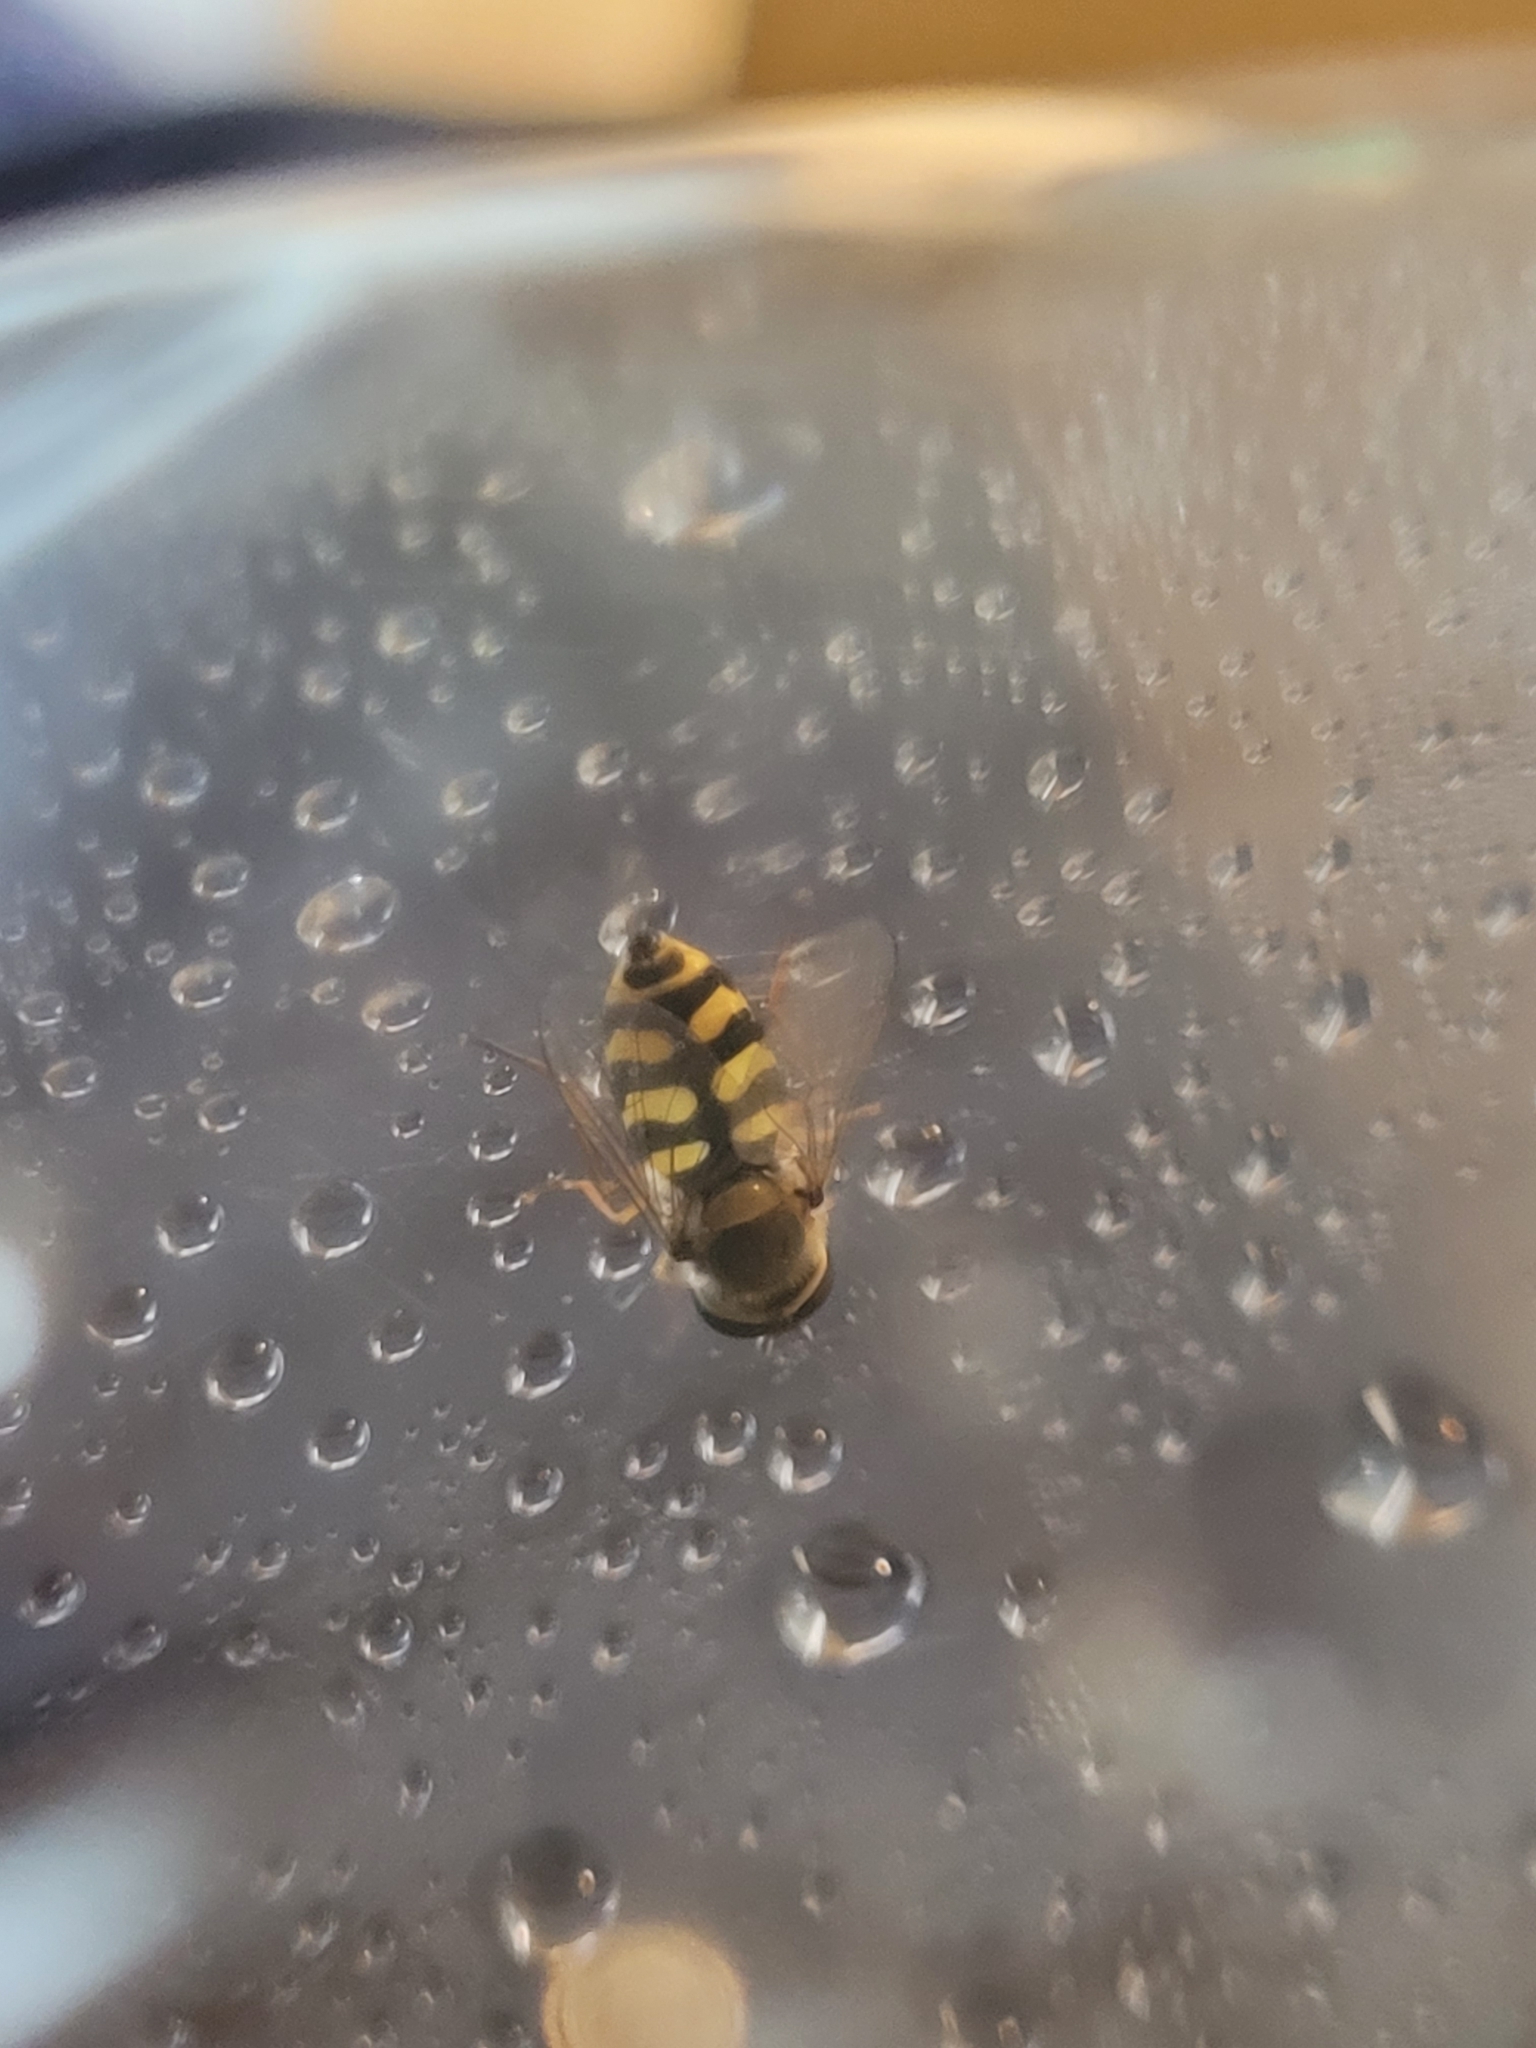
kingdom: Animalia
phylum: Arthropoda
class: Insecta
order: Diptera
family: Syrphidae
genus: Eupeodes
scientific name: Eupeodes corollae
